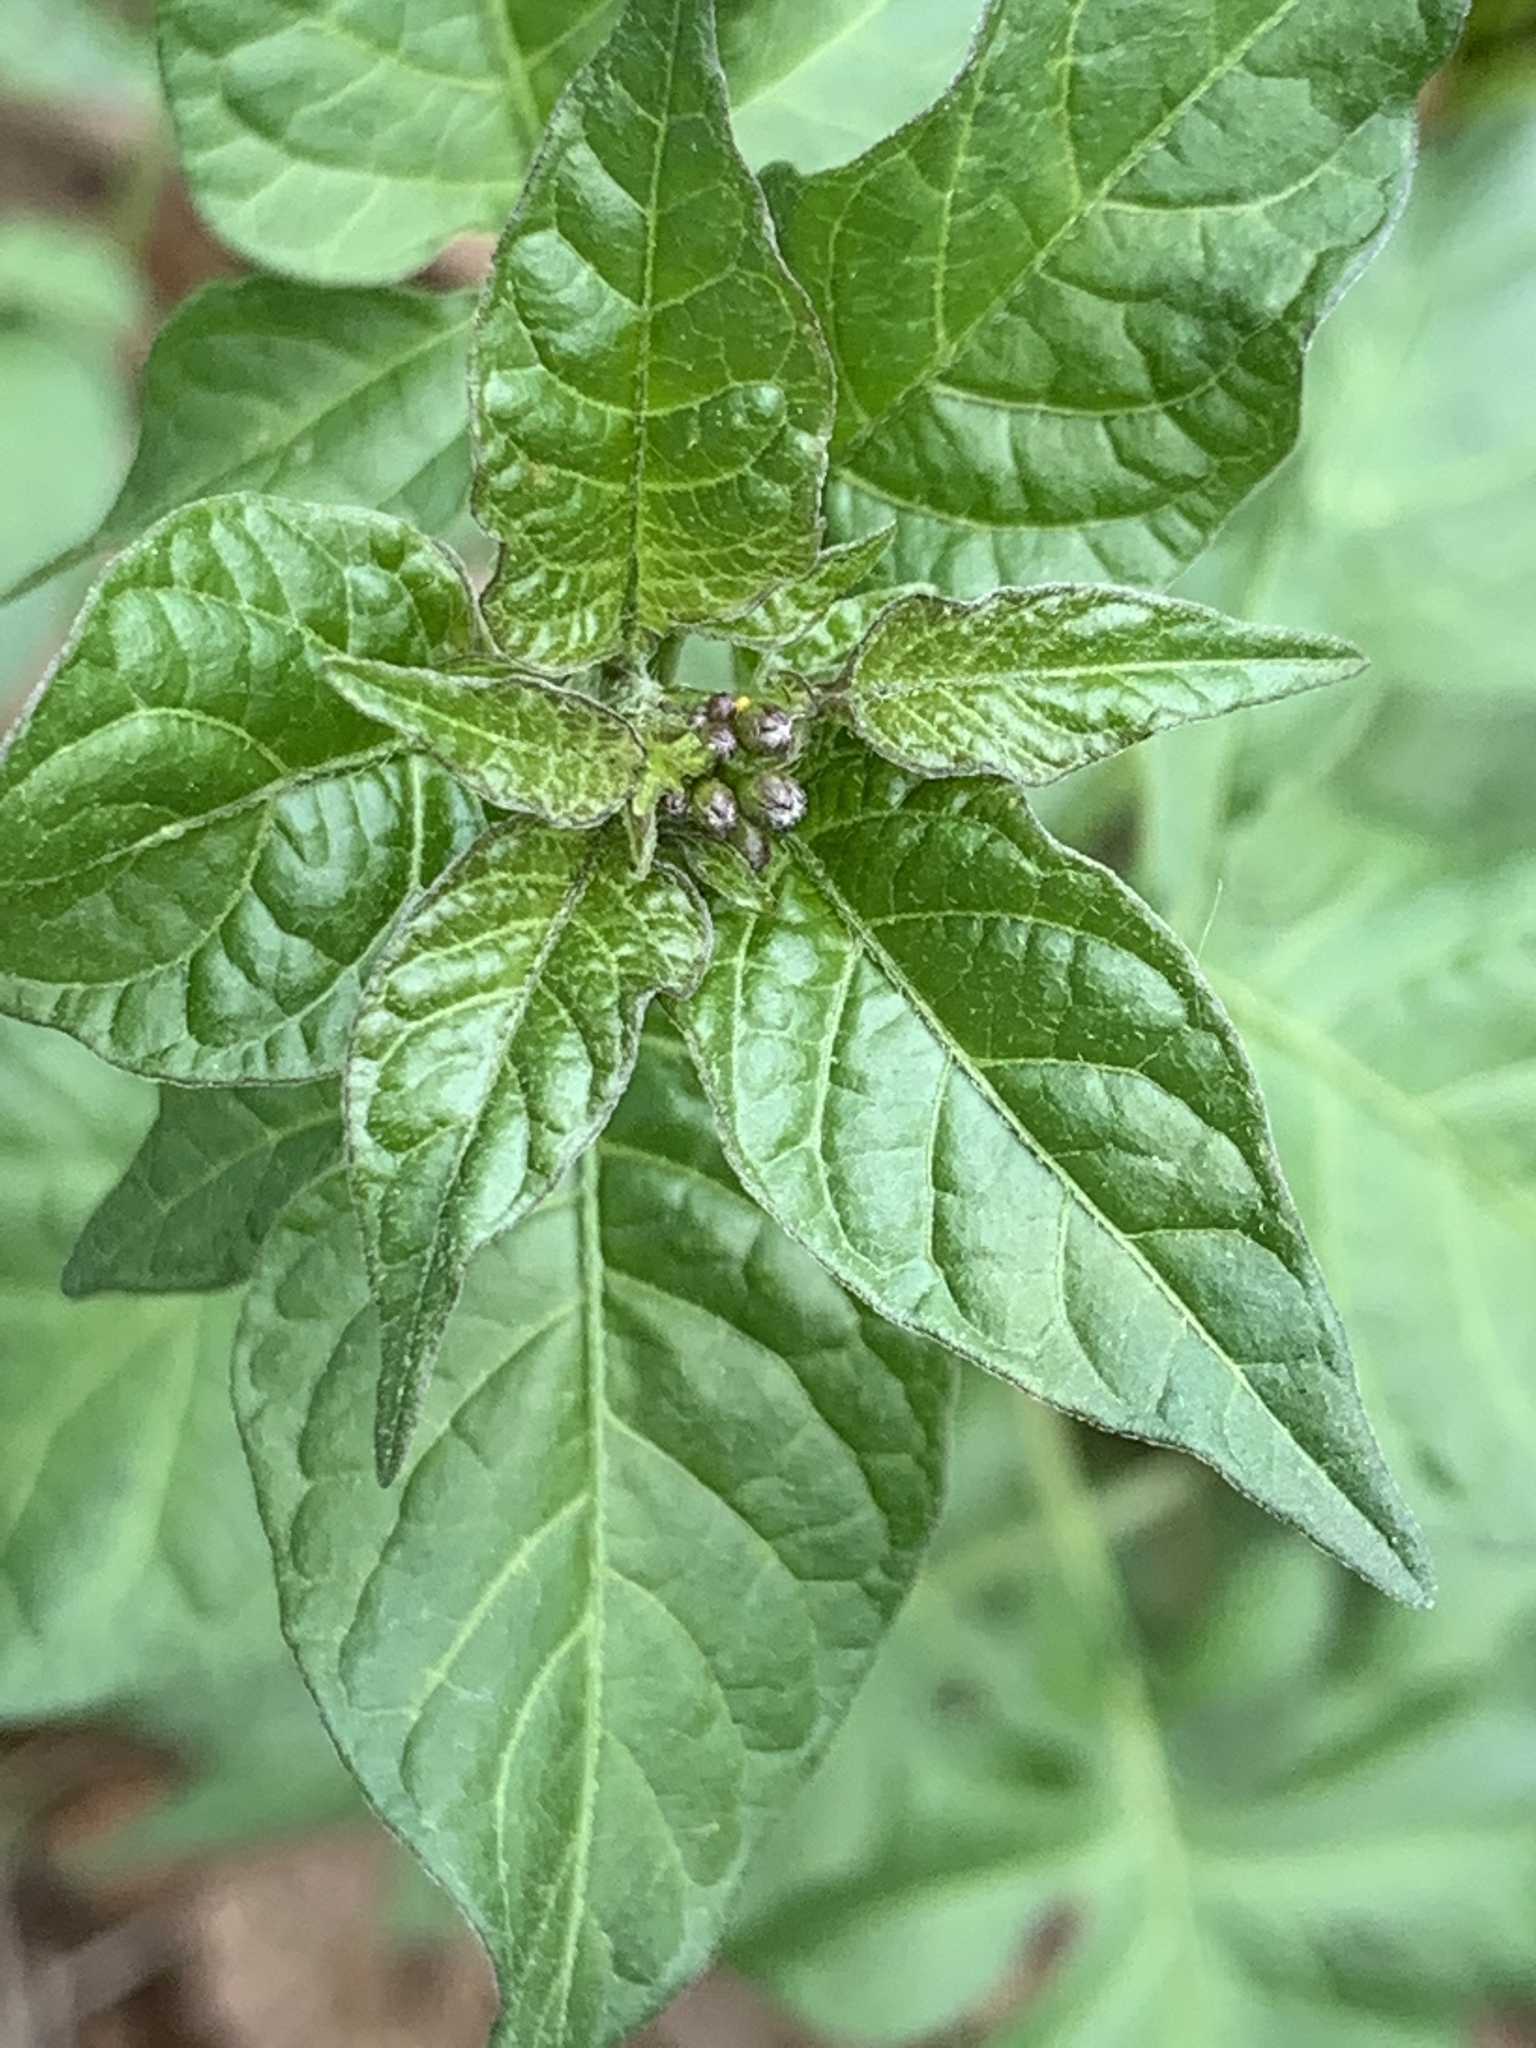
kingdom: Plantae
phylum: Tracheophyta
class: Magnoliopsida
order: Solanales
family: Solanaceae
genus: Solanum
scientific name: Solanum dulcamara
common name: Climbing nightshade
